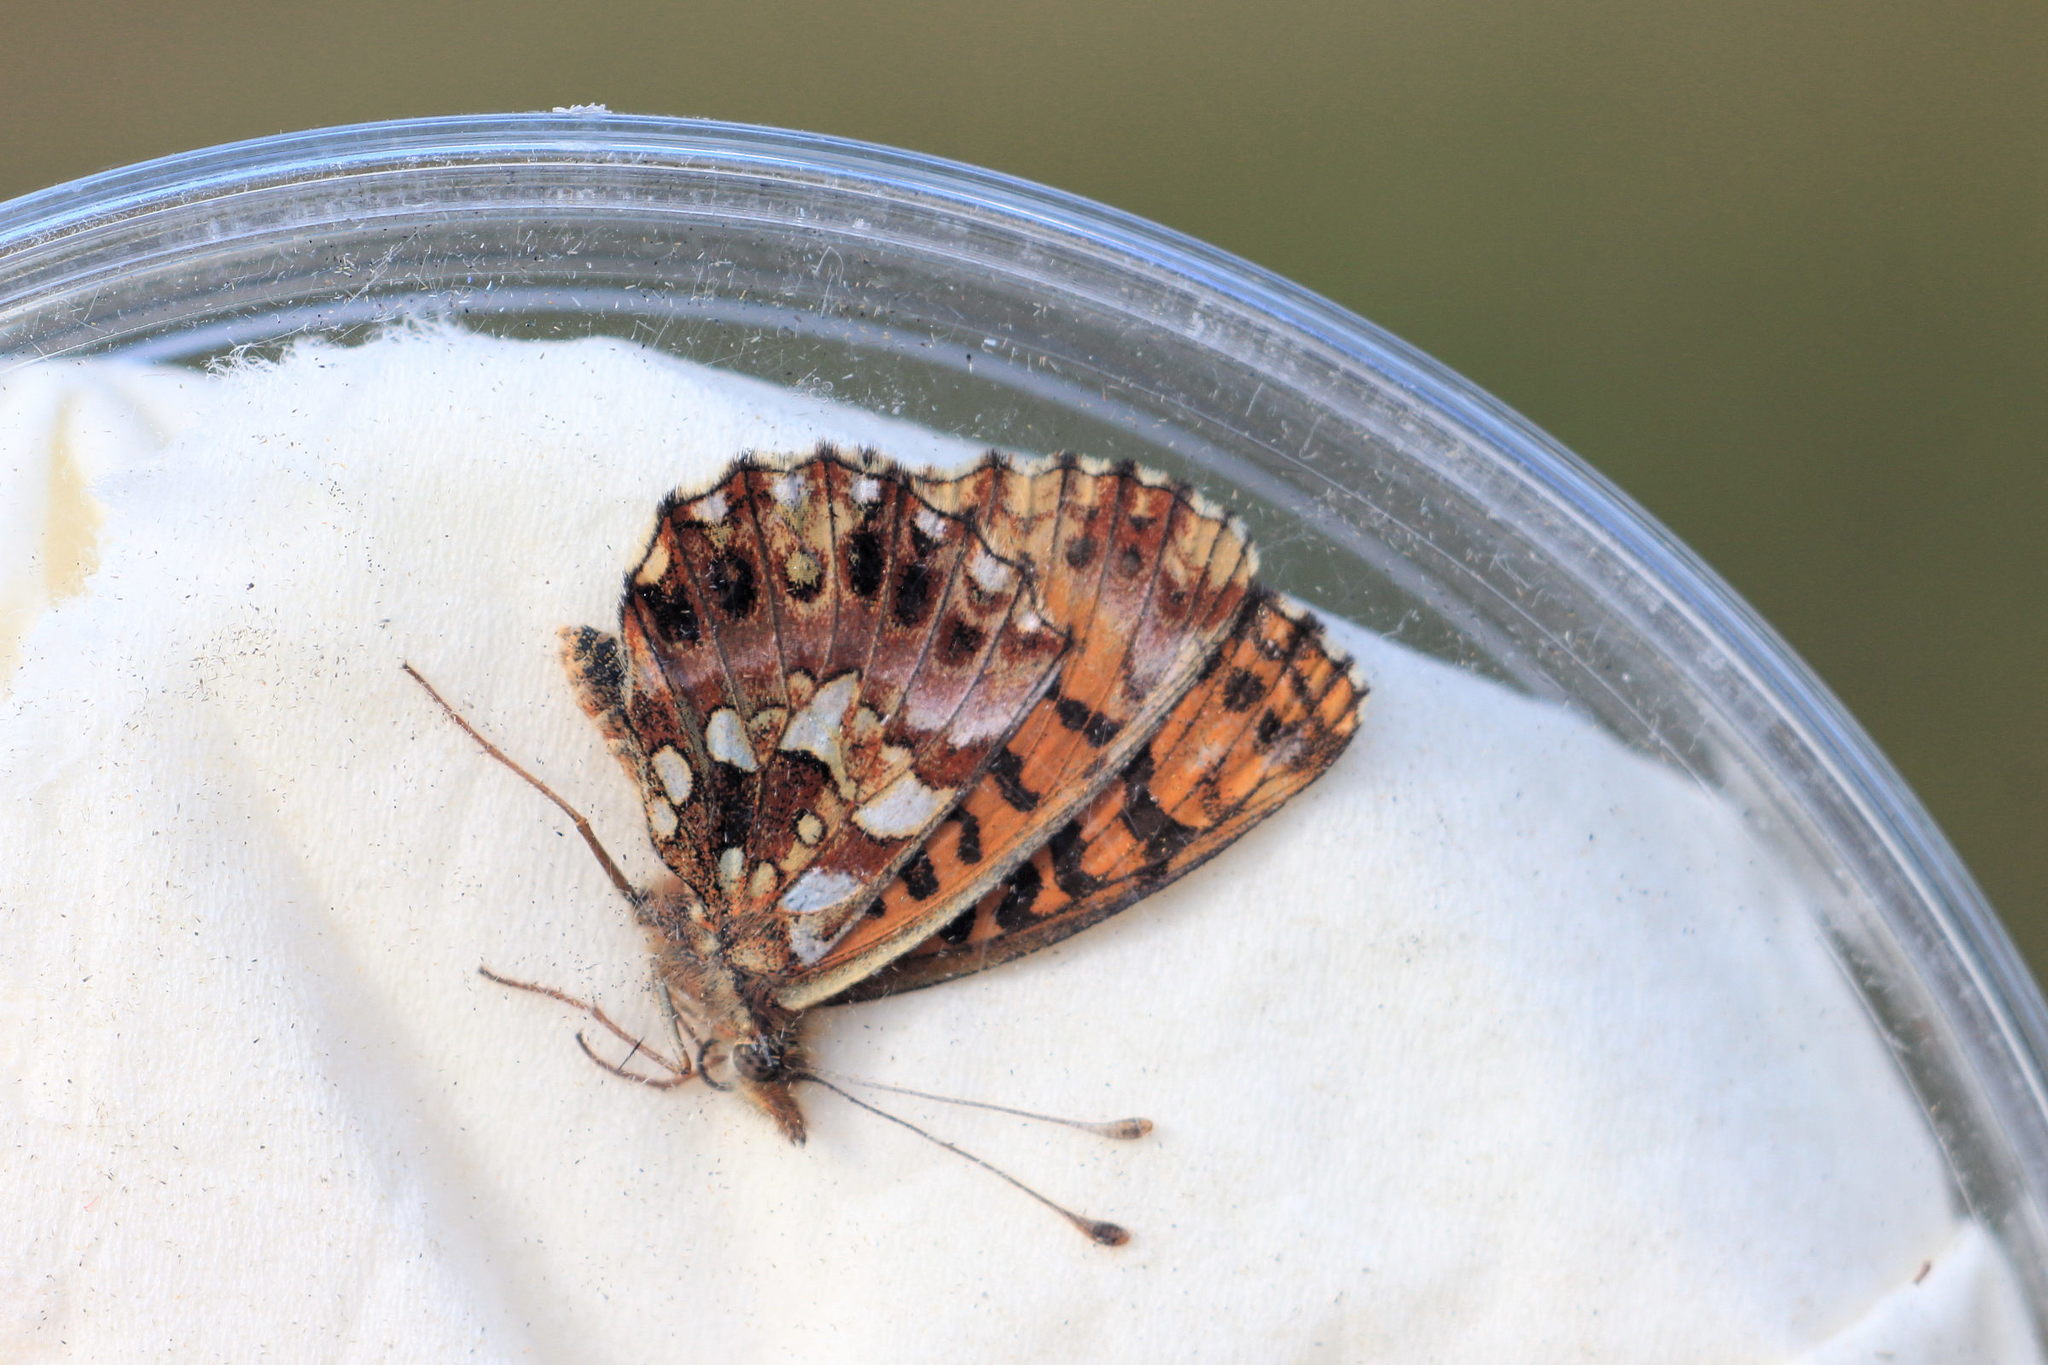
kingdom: Animalia
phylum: Arthropoda
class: Insecta
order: Lepidoptera
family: Nymphalidae
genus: Boloria
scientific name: Boloria dia
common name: Weaver's fritillary
